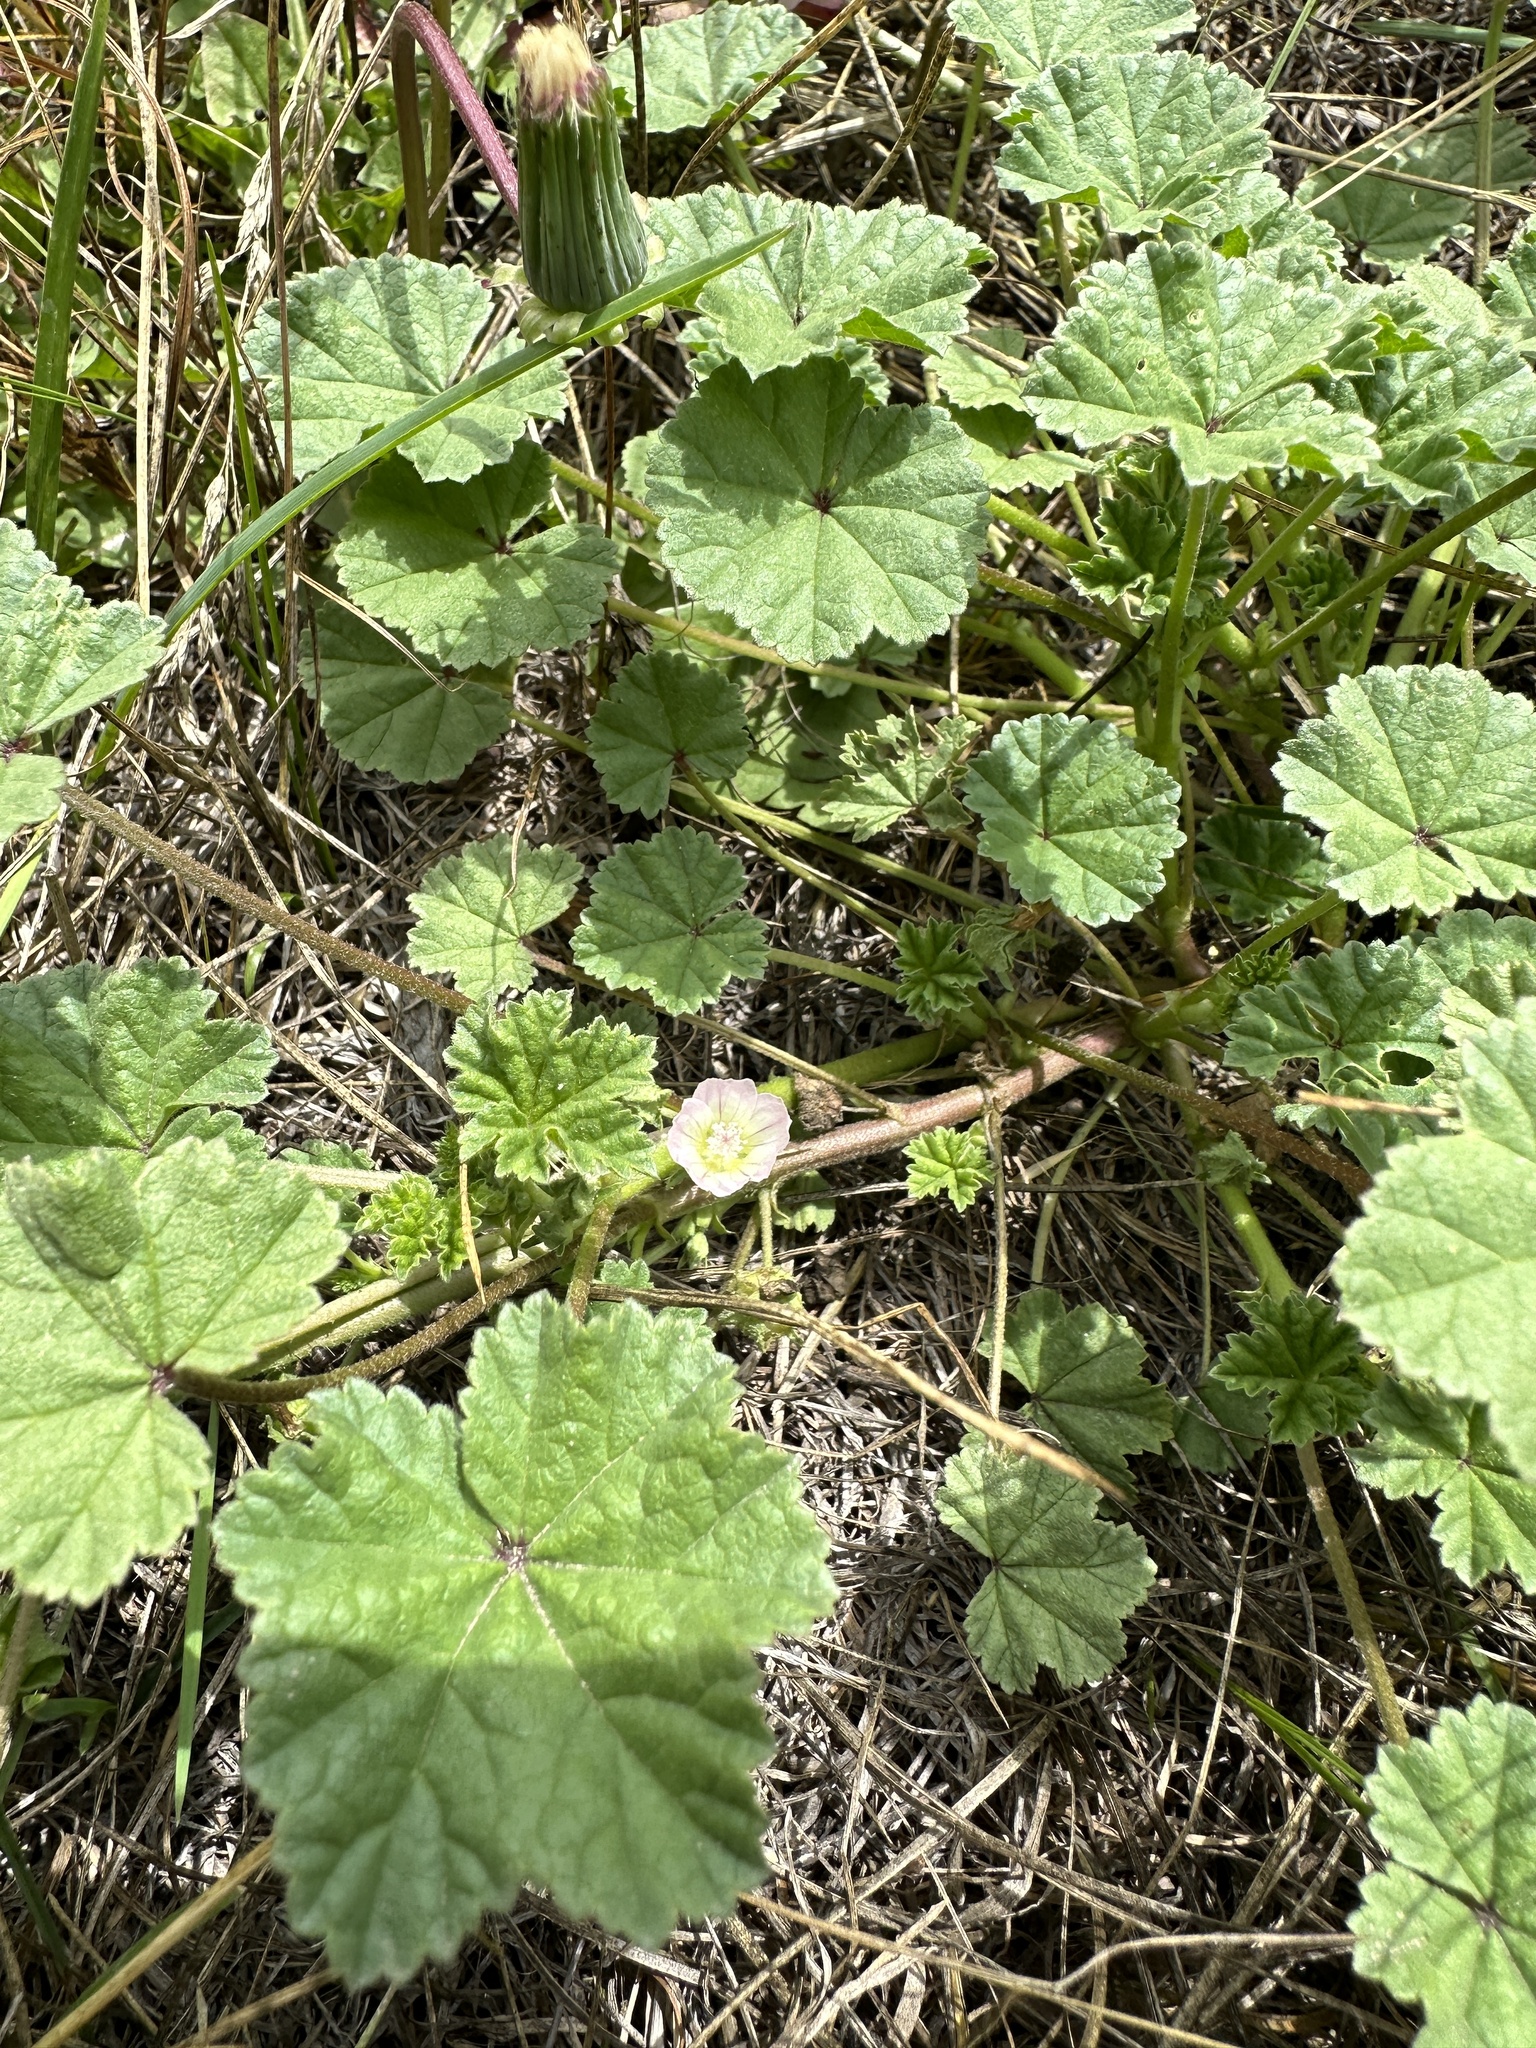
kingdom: Plantae
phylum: Tracheophyta
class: Magnoliopsida
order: Malvales
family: Malvaceae
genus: Malva
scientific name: Malva neglecta
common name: Common mallow
